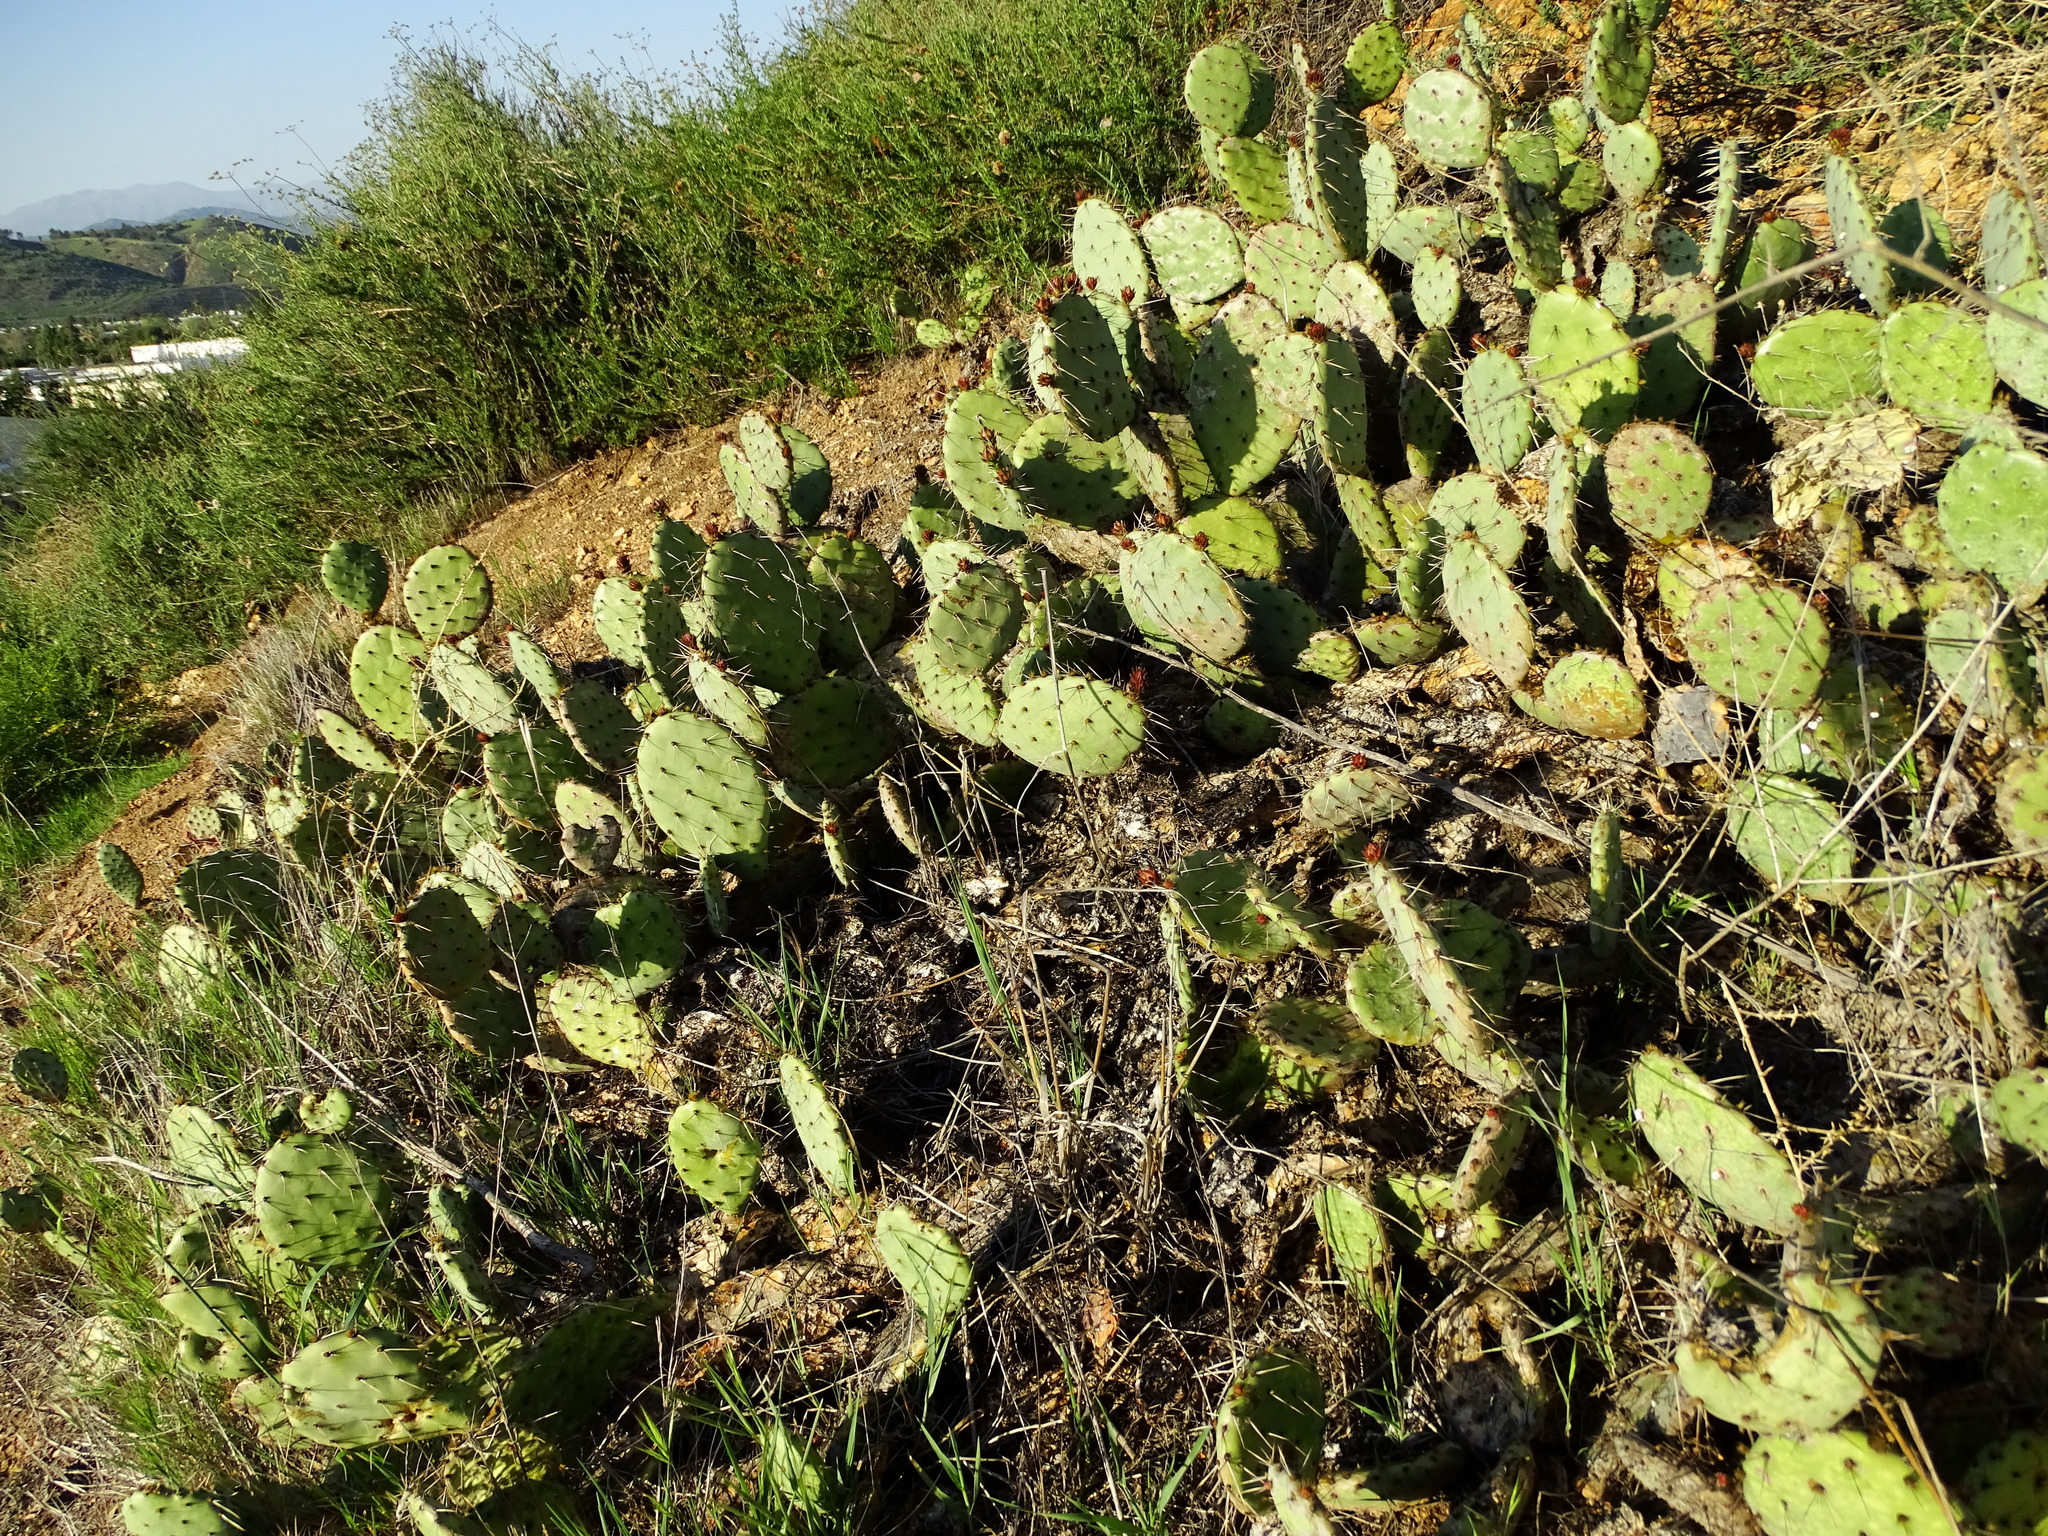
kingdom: Plantae
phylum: Tracheophyta
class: Magnoliopsida
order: Caryophyllales
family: Cactaceae
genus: Opuntia
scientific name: Opuntia littoralis
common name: Coastal prickly-pear
